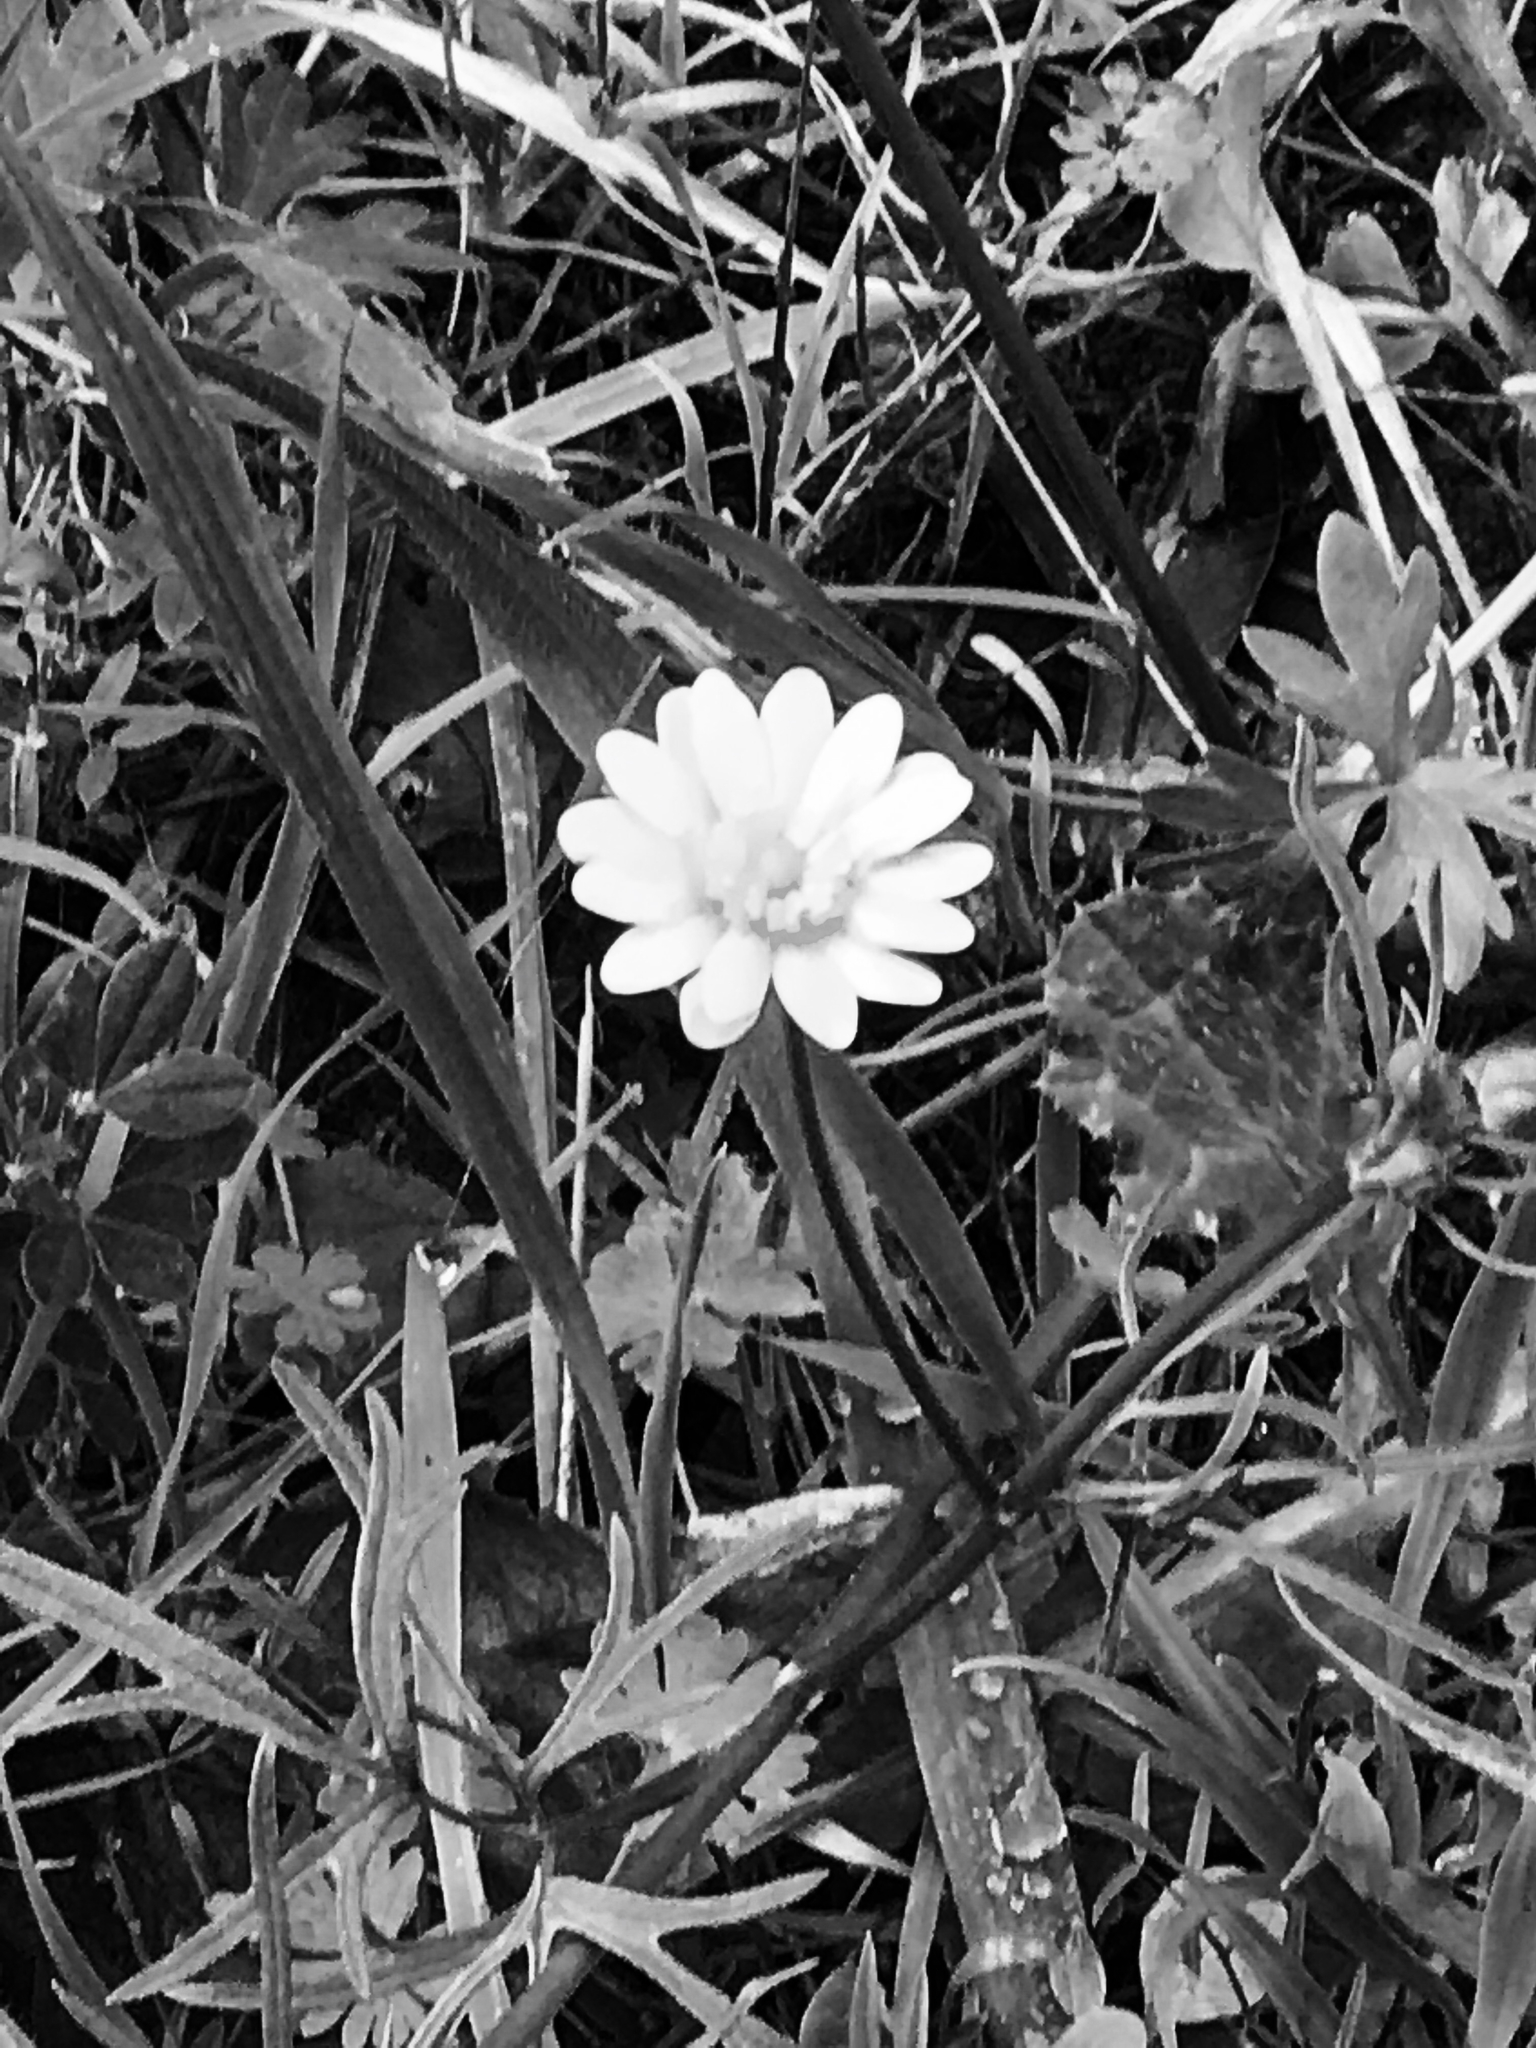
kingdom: Plantae
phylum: Tracheophyta
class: Magnoliopsida
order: Ranunculales
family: Ranunculaceae
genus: Ranunculus
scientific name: Ranunculus californicus
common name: California buttercup
